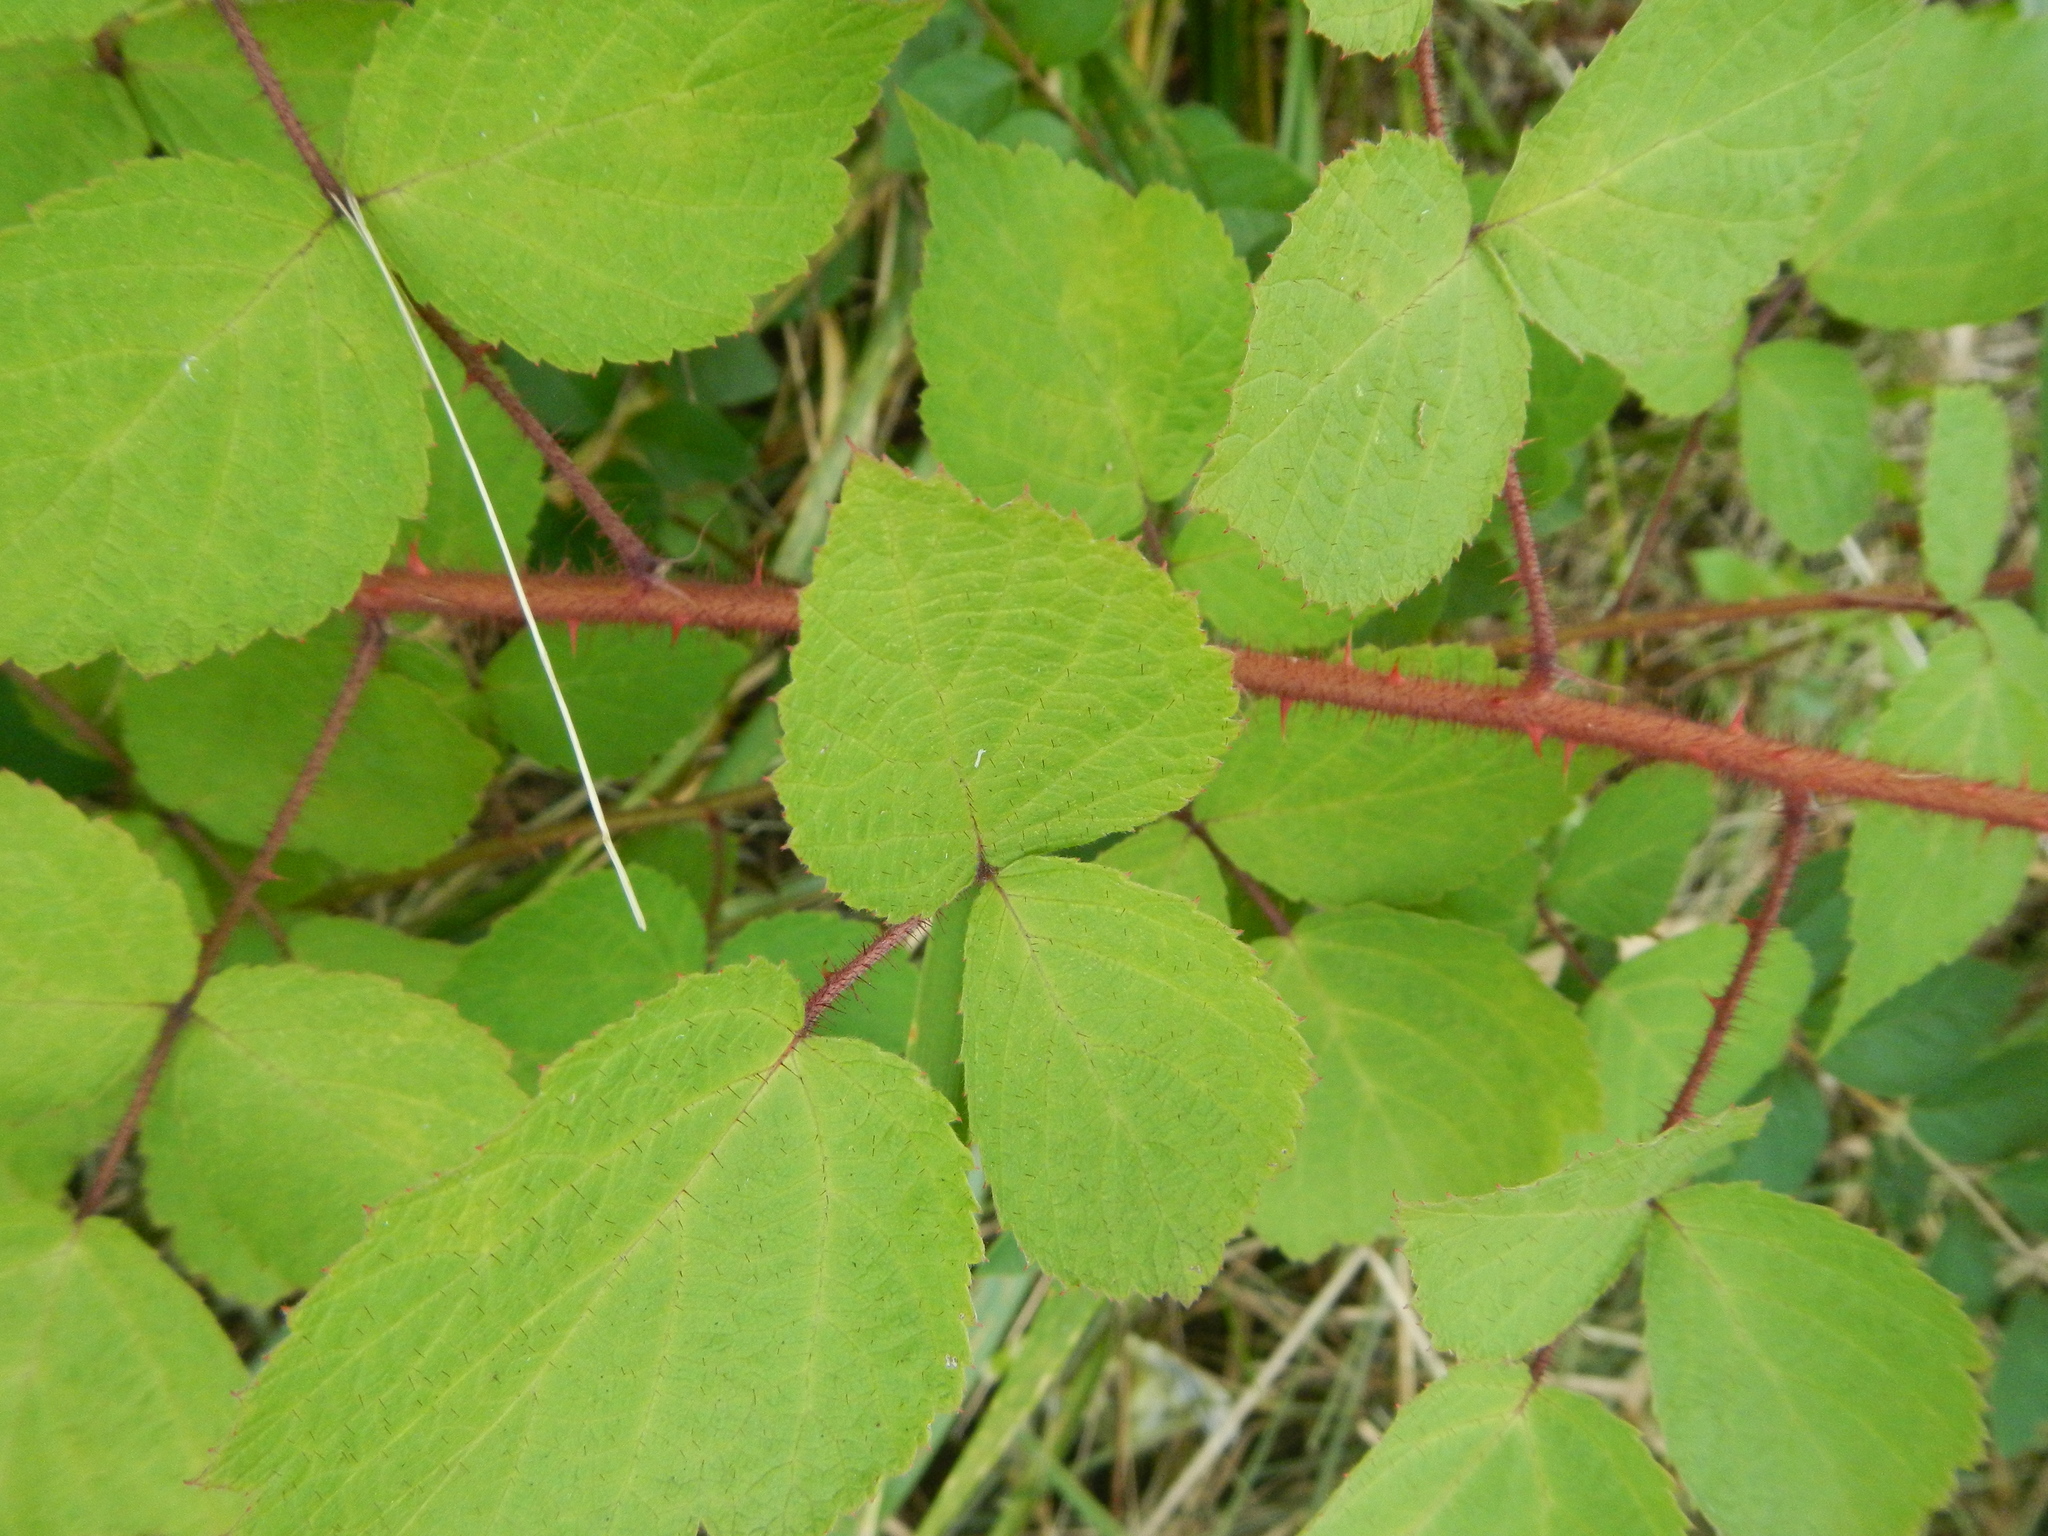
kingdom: Plantae
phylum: Tracheophyta
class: Magnoliopsida
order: Rosales
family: Rosaceae
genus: Rubus
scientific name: Rubus phoenicolasius
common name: Japanese wineberry
